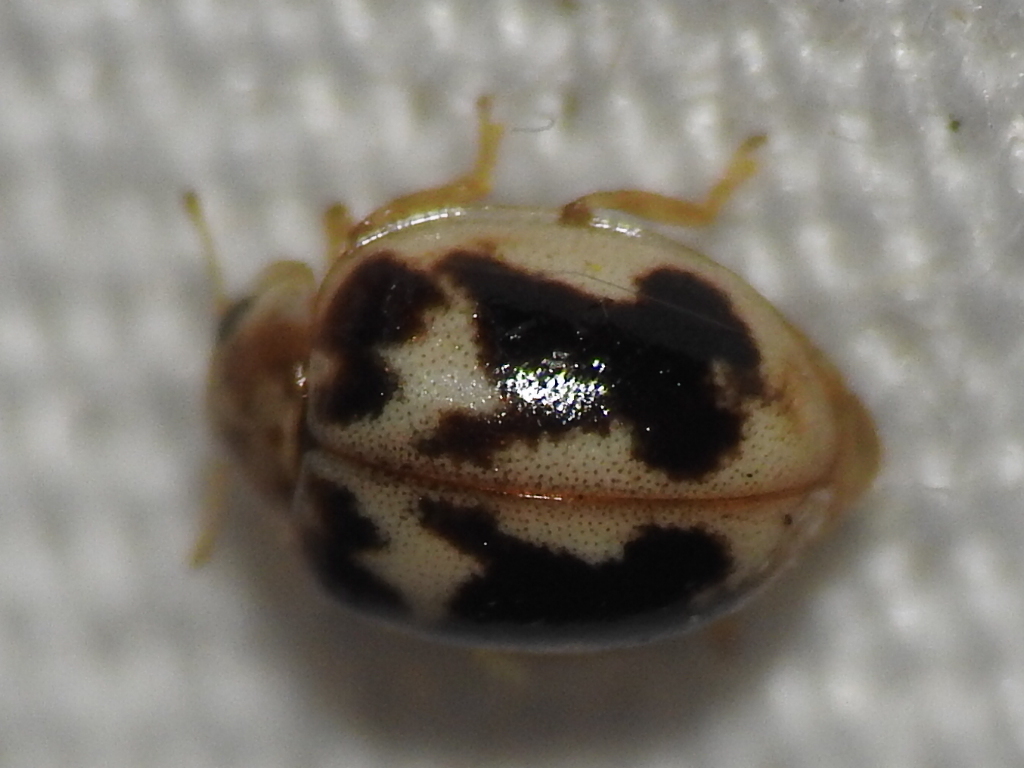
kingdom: Animalia
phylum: Arthropoda
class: Insecta
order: Coleoptera
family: Coccinellidae
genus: Psyllobora
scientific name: Psyllobora renifer
